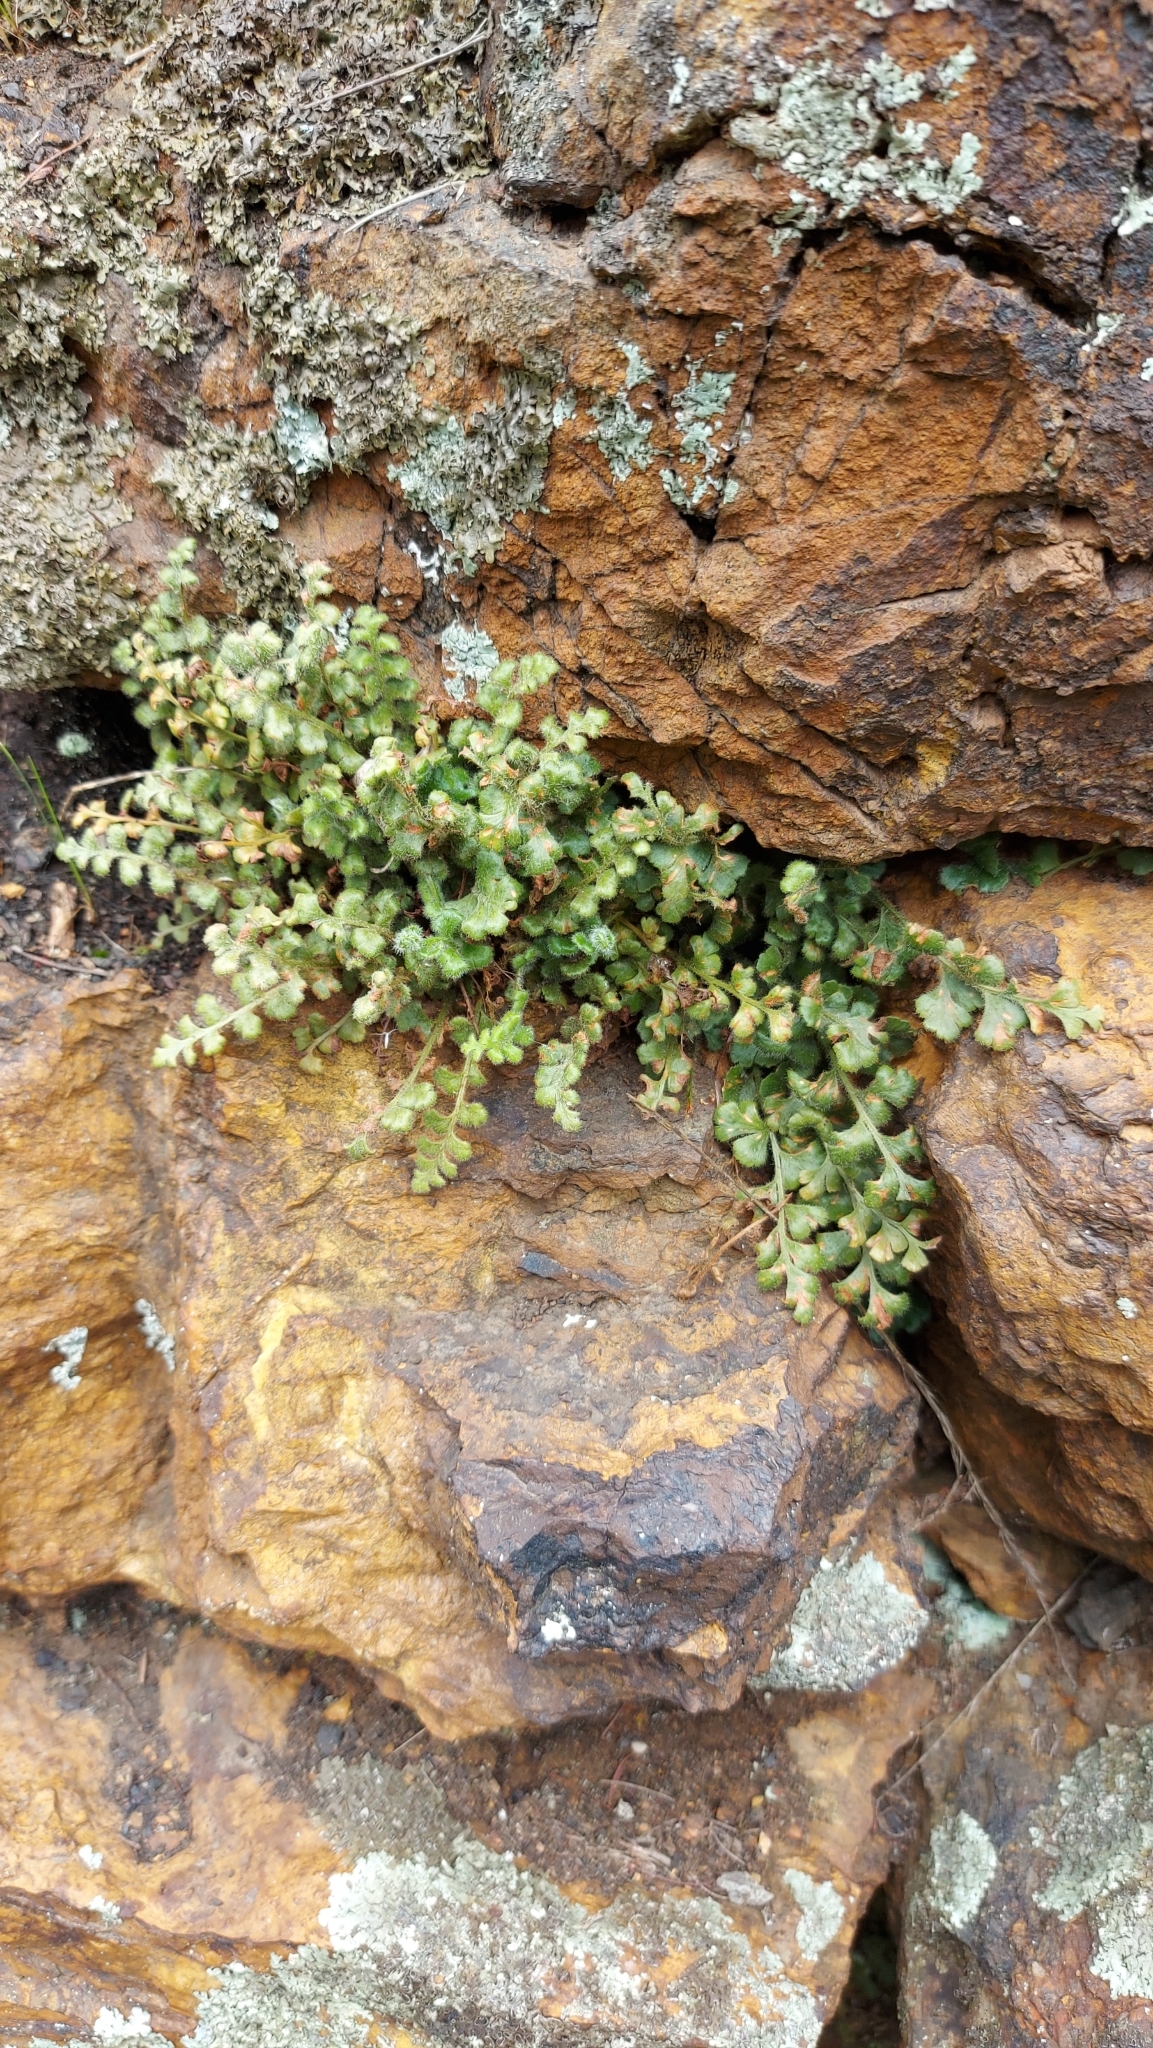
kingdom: Plantae
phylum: Tracheophyta
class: Polypodiopsida
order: Polypodiales
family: Aspleniaceae
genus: Asplenium
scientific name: Asplenium subglandulosum
